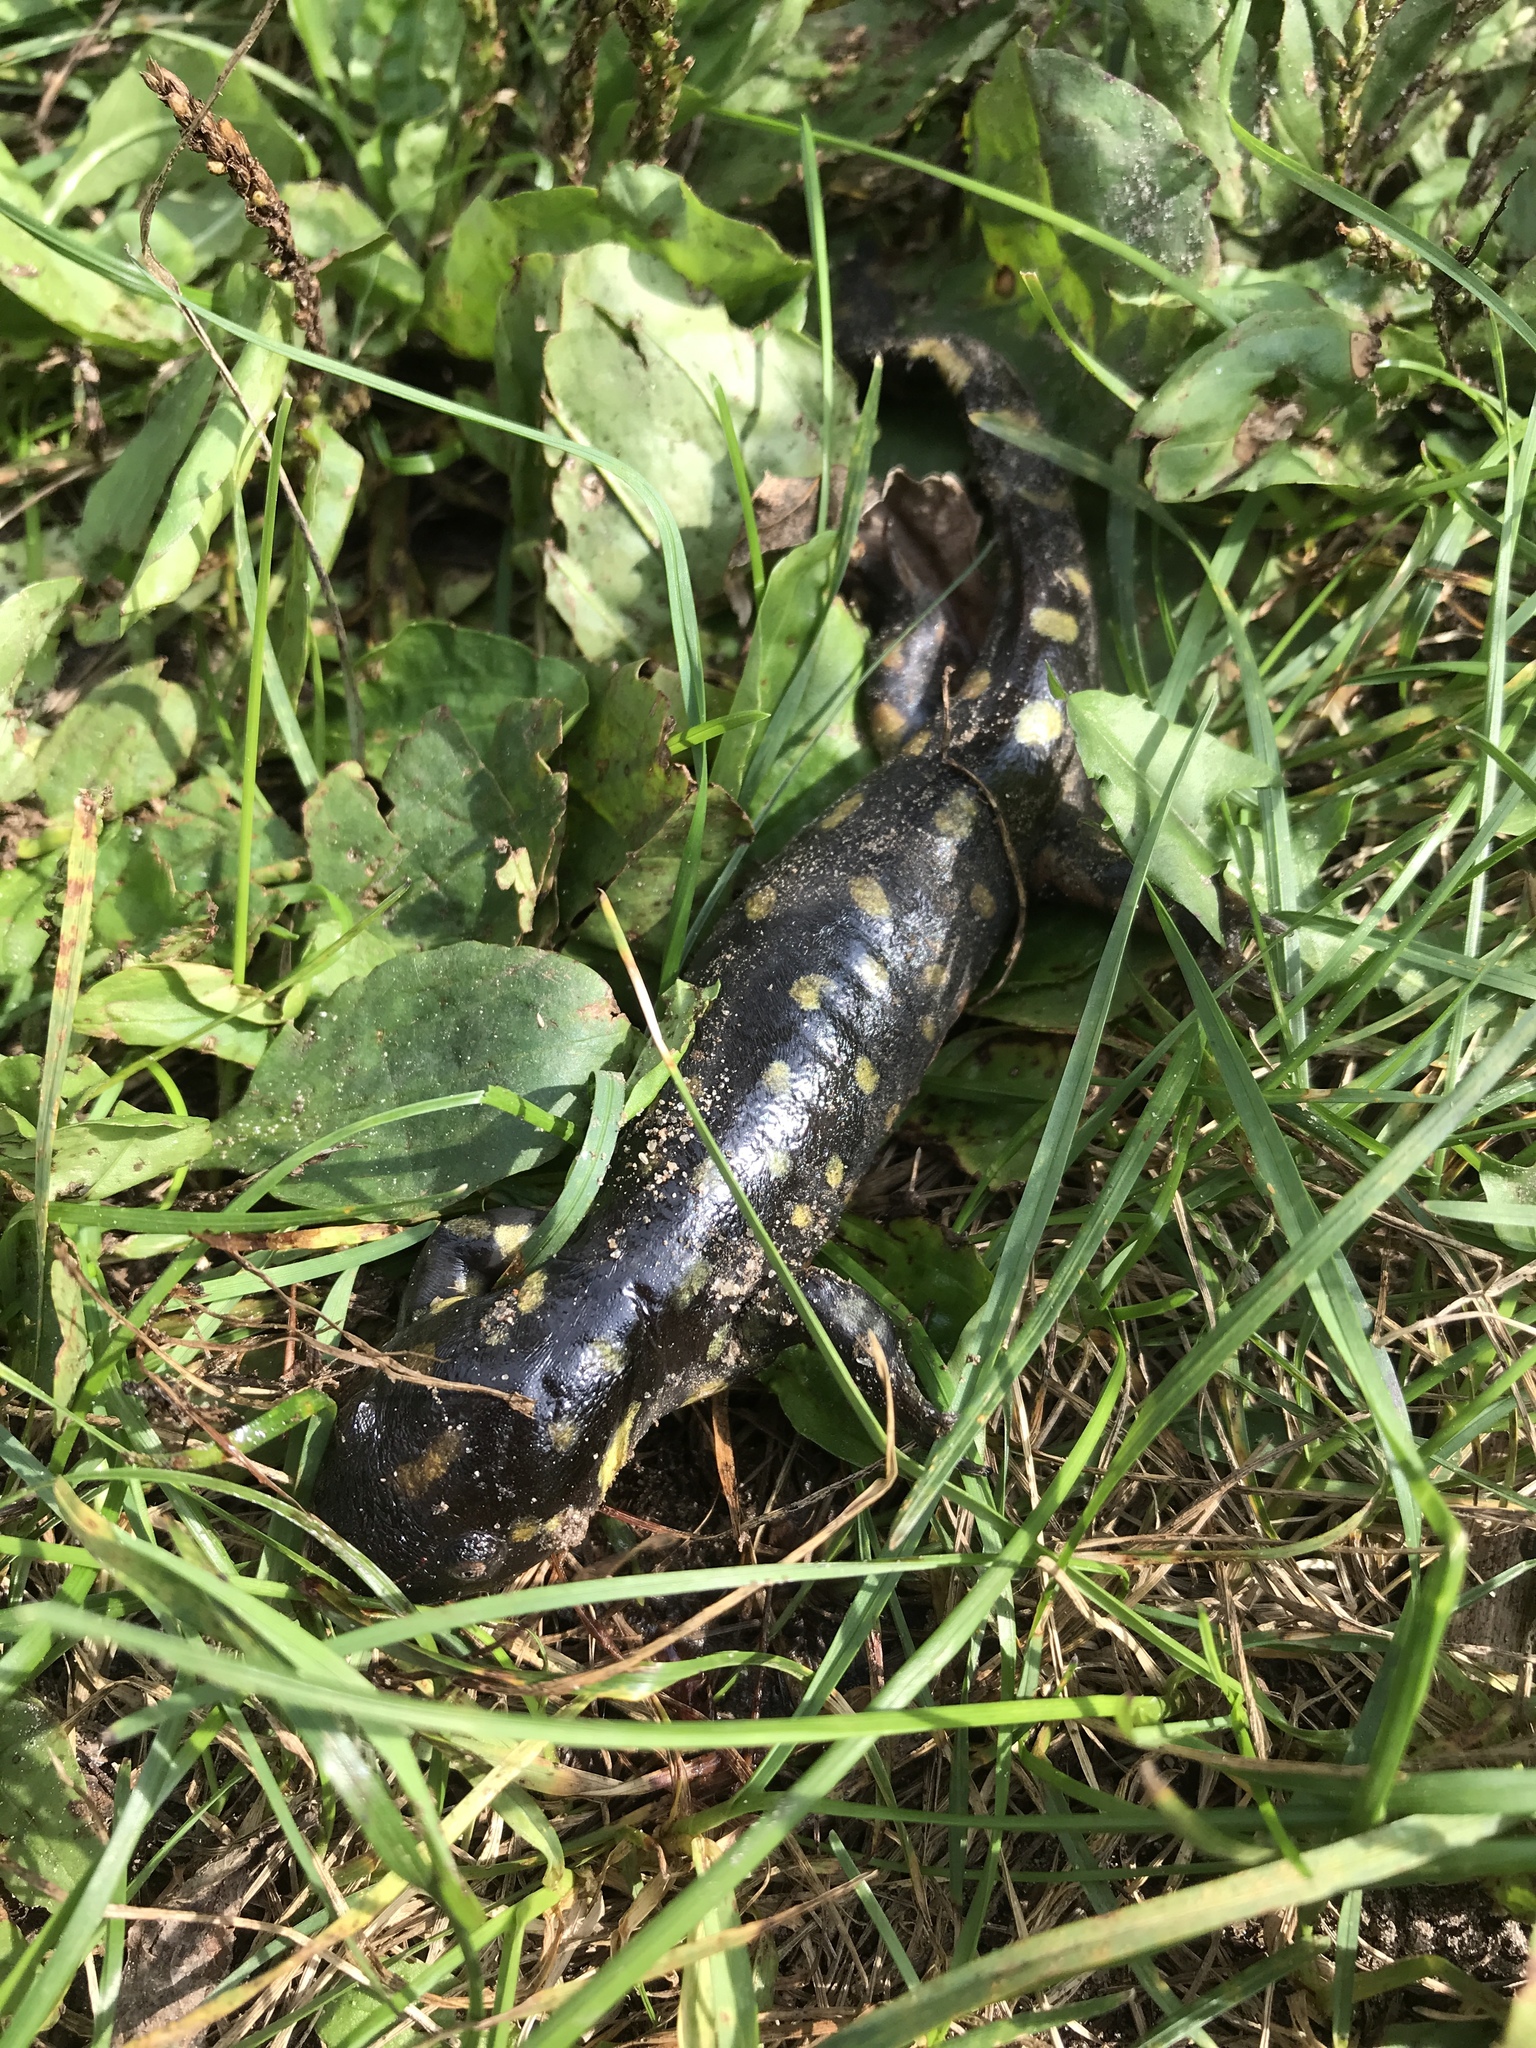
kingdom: Animalia
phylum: Chordata
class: Amphibia
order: Caudata
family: Ambystomatidae
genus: Ambystoma
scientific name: Ambystoma tigrinum
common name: Tiger salamander
